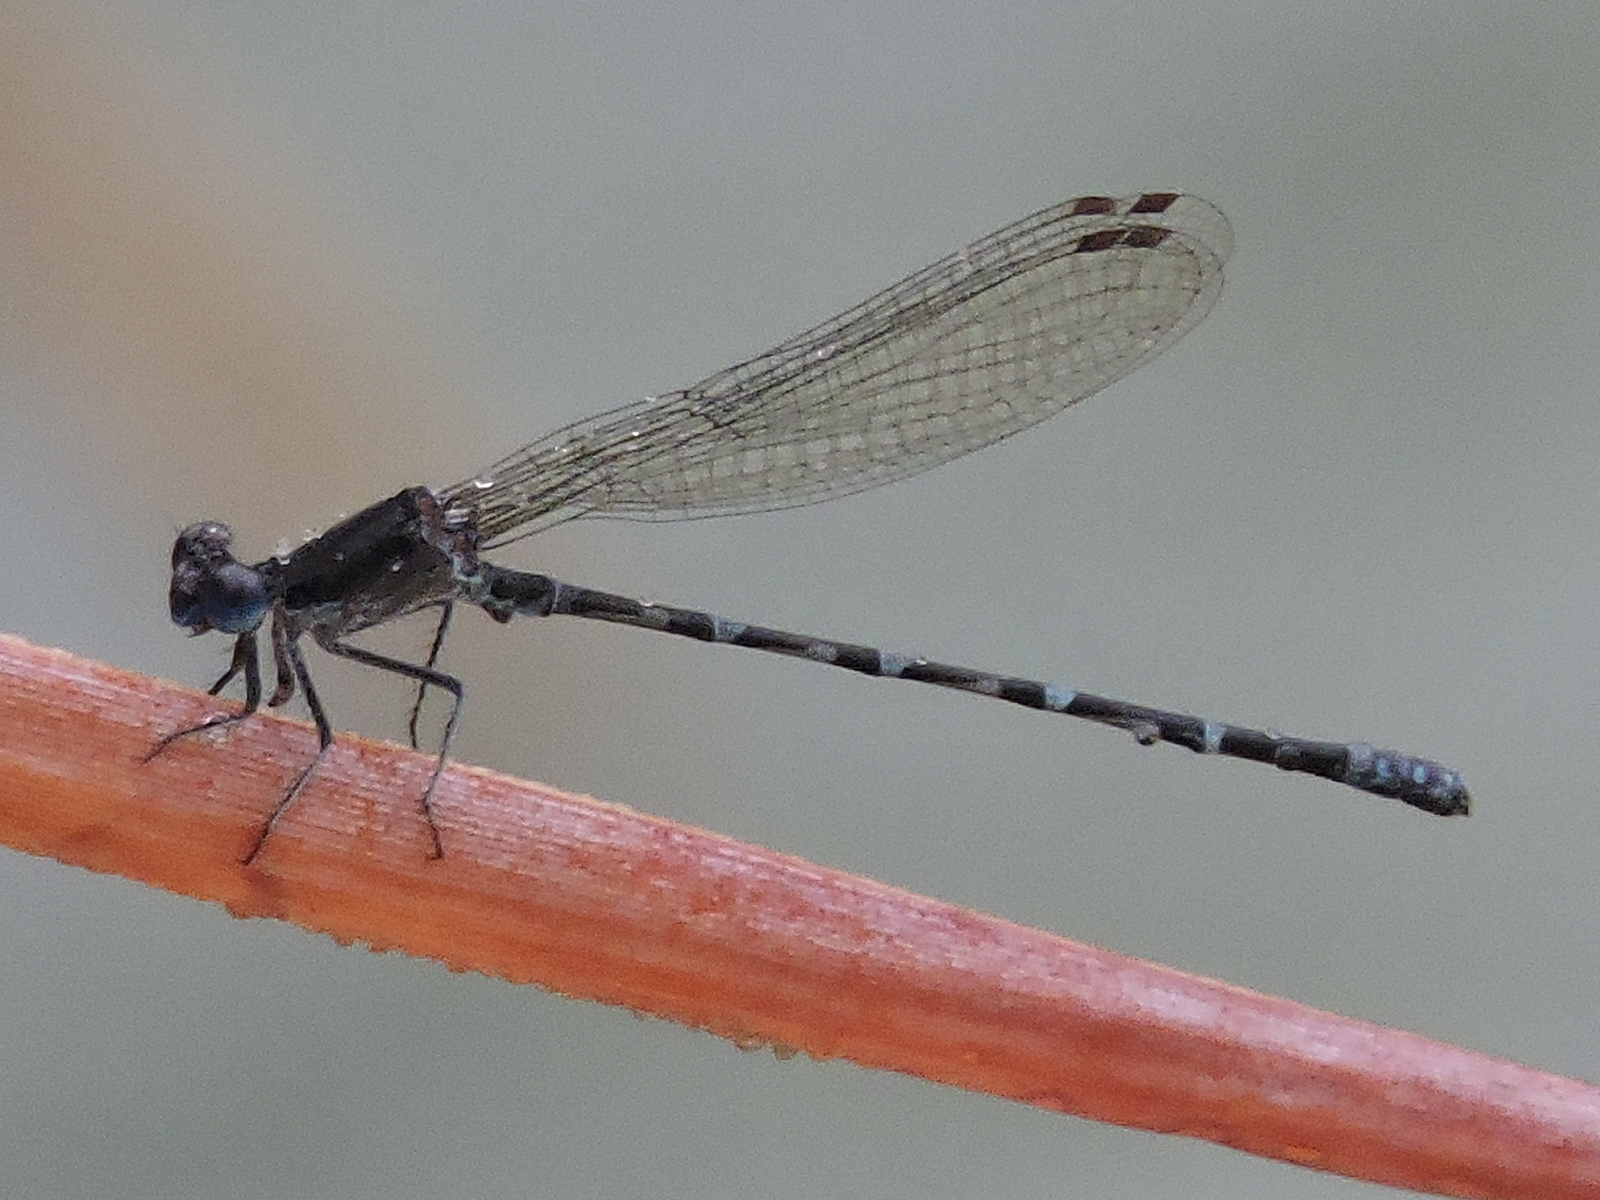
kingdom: Animalia
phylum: Arthropoda
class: Insecta
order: Odonata
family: Coenagrionidae
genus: Argia
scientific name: Argia immunda
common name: Kiowa dancer
